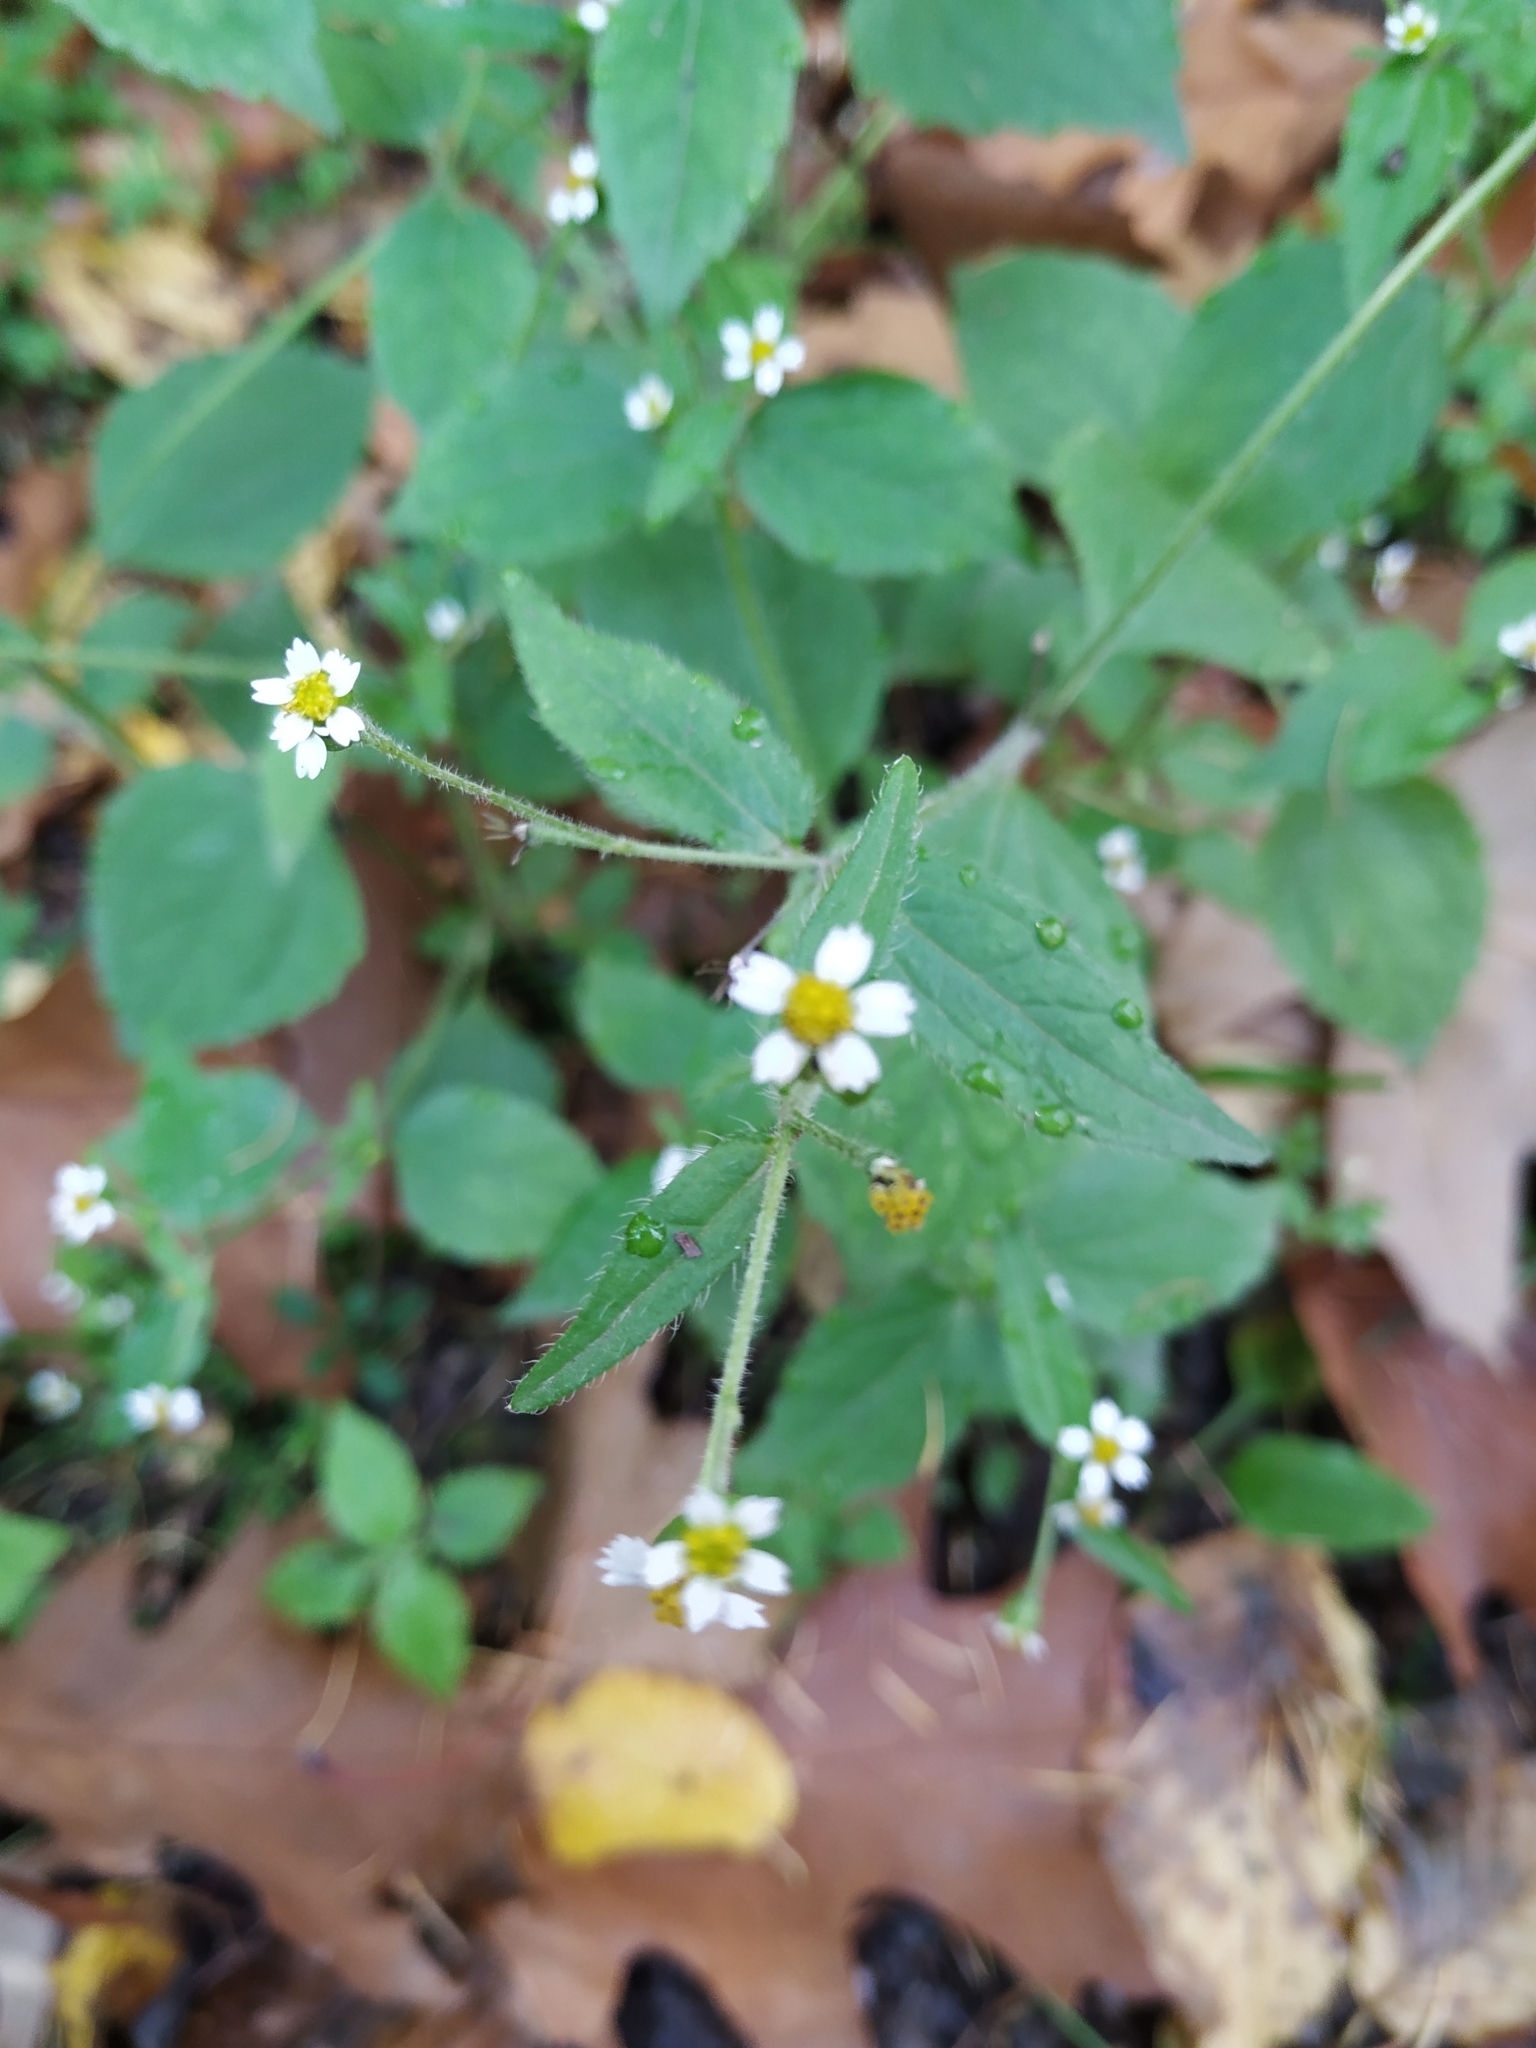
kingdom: Plantae
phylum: Tracheophyta
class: Magnoliopsida
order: Asterales
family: Asteraceae
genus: Galinsoga
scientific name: Galinsoga quadriradiata
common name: Shaggy soldier
